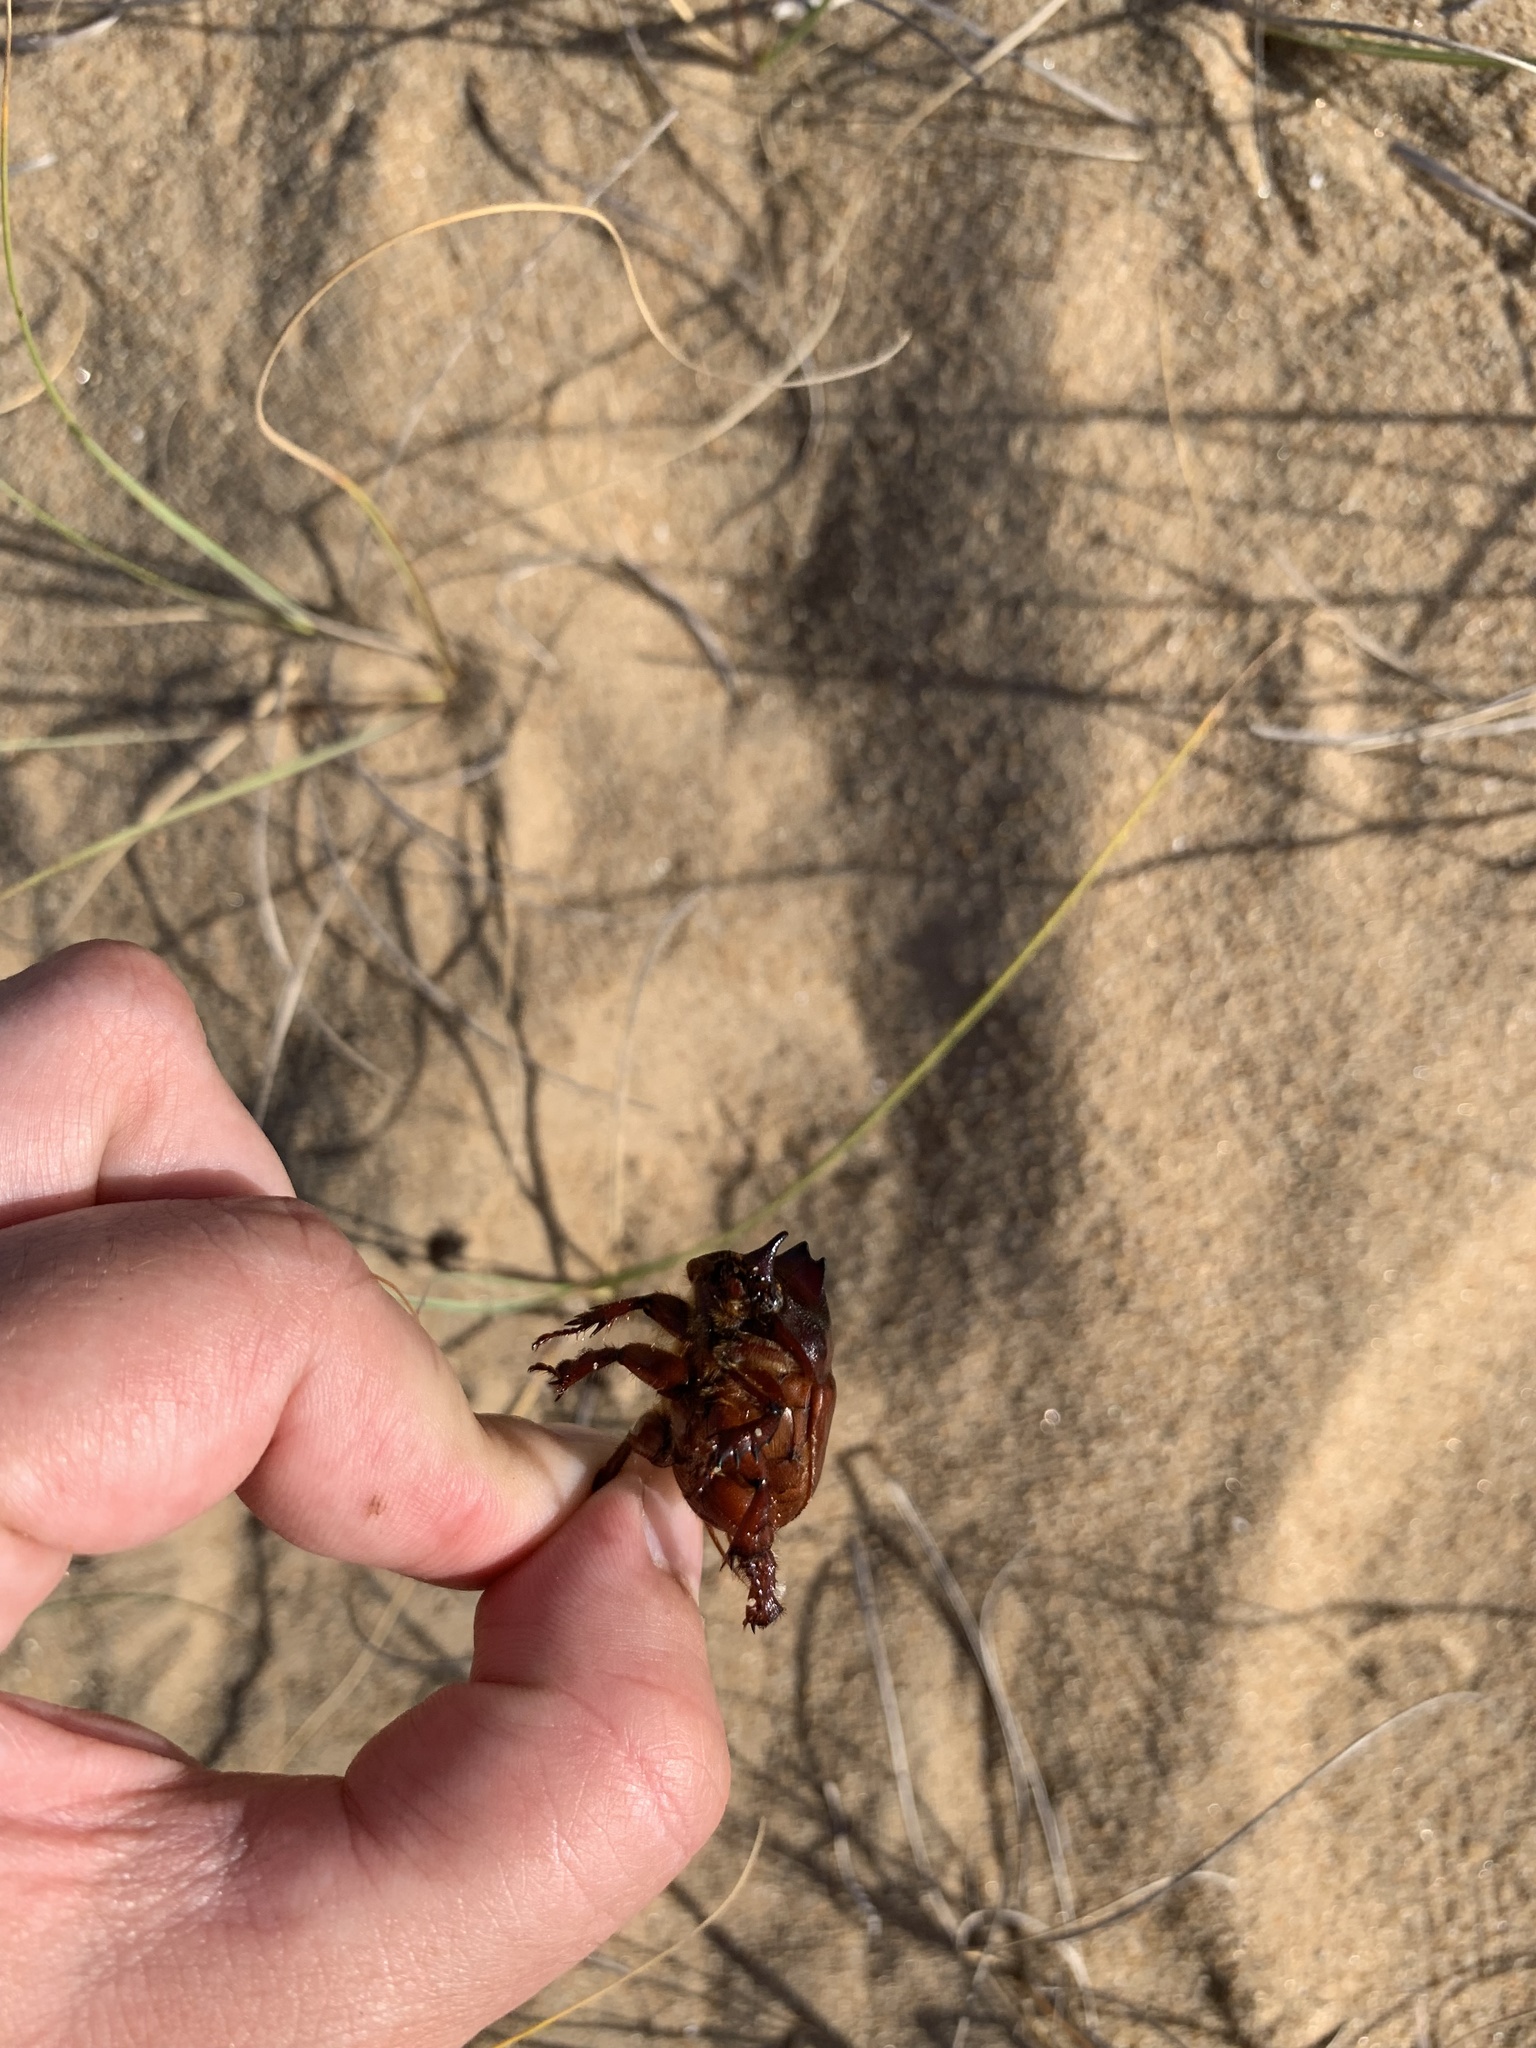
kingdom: Animalia
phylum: Arthropoda
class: Insecta
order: Coleoptera
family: Scarabaeidae
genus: Thronistes
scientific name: Thronistes rouxi
